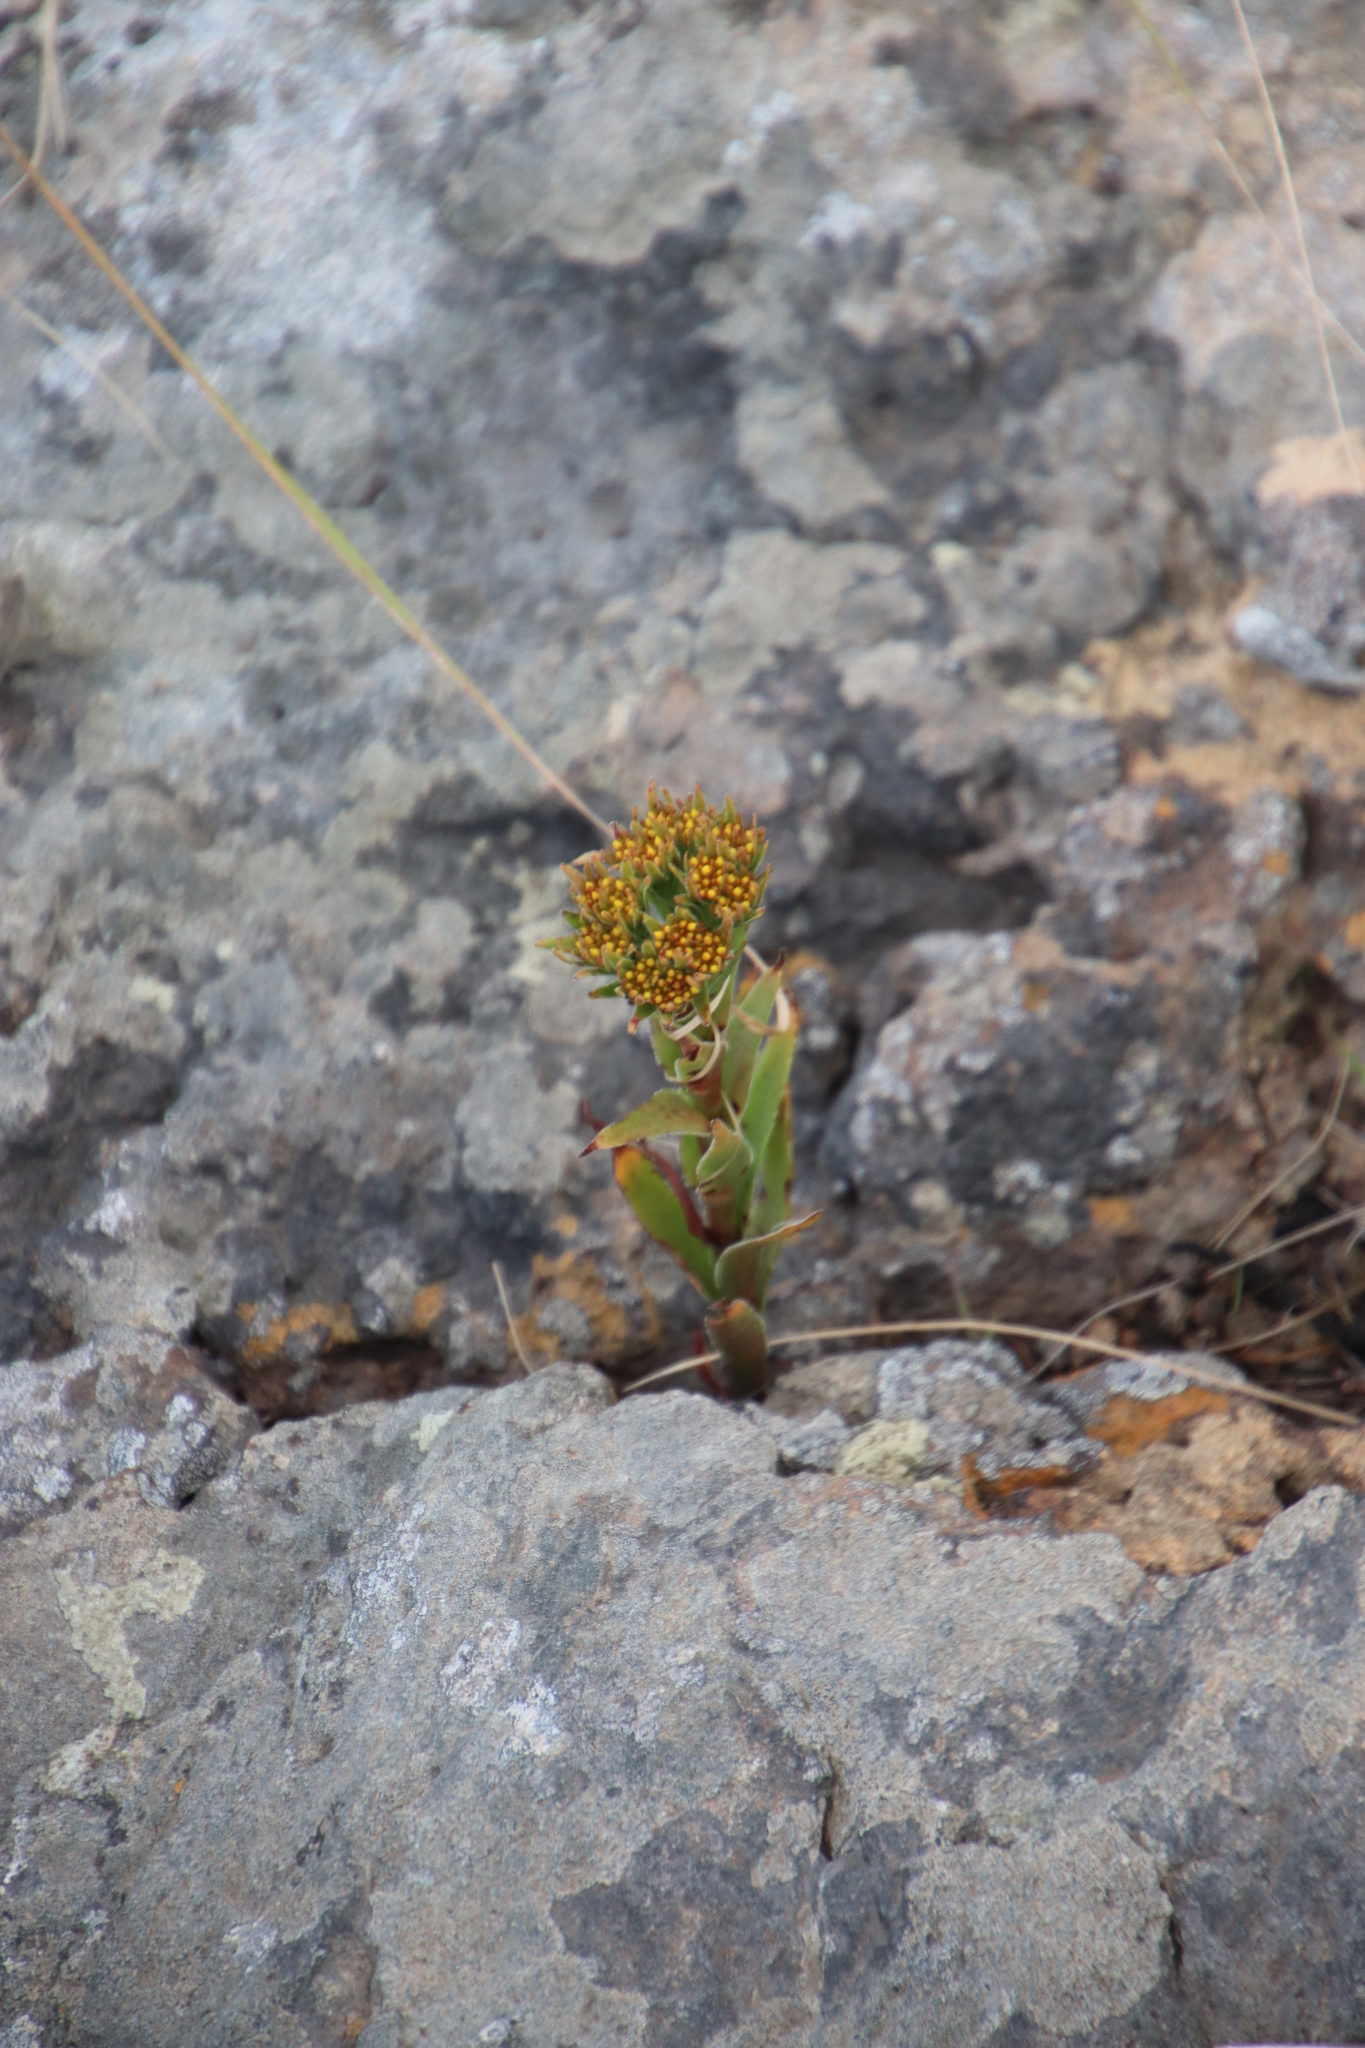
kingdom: Plantae
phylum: Tracheophyta
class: Magnoliopsida
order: Saxifragales
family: Crassulaceae
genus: Crassula
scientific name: Crassula vaginata
